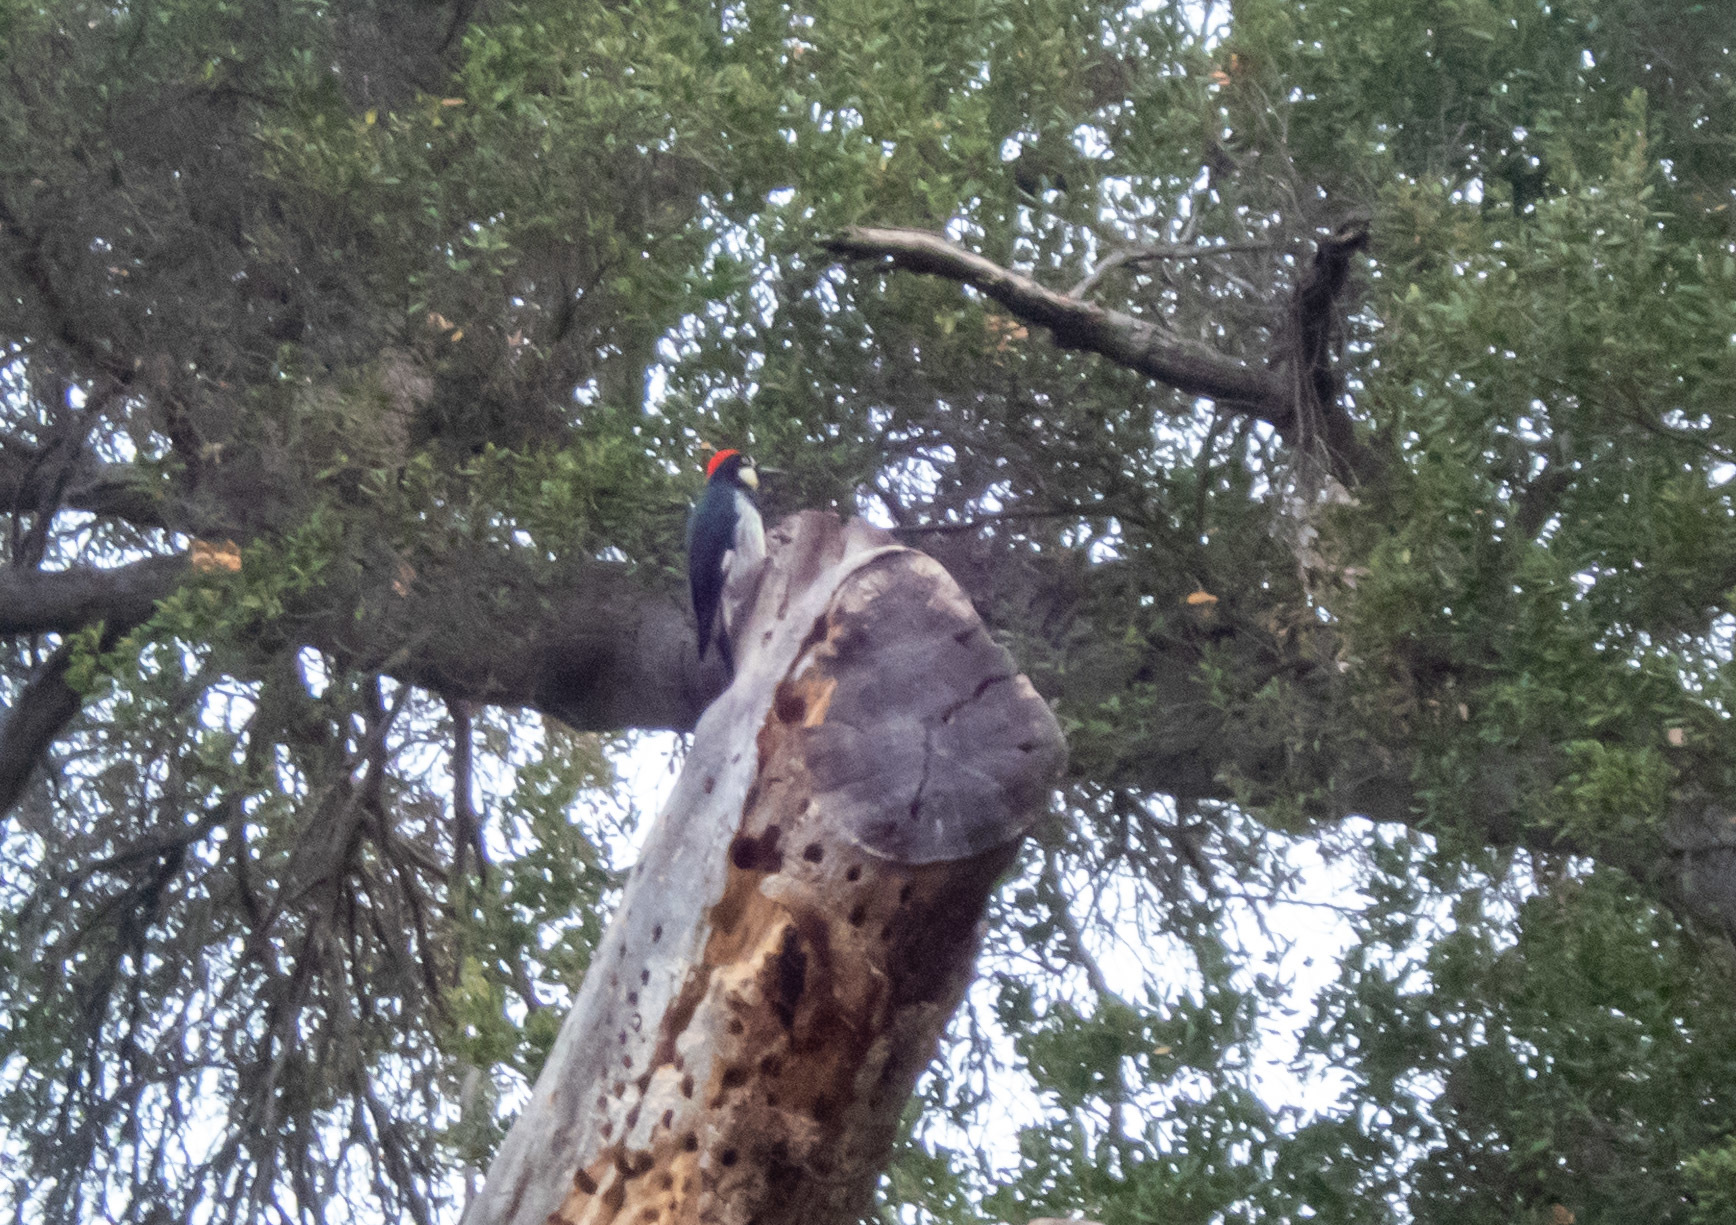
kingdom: Animalia
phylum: Chordata
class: Aves
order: Piciformes
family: Picidae
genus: Melanerpes
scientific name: Melanerpes formicivorus
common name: Acorn woodpecker
